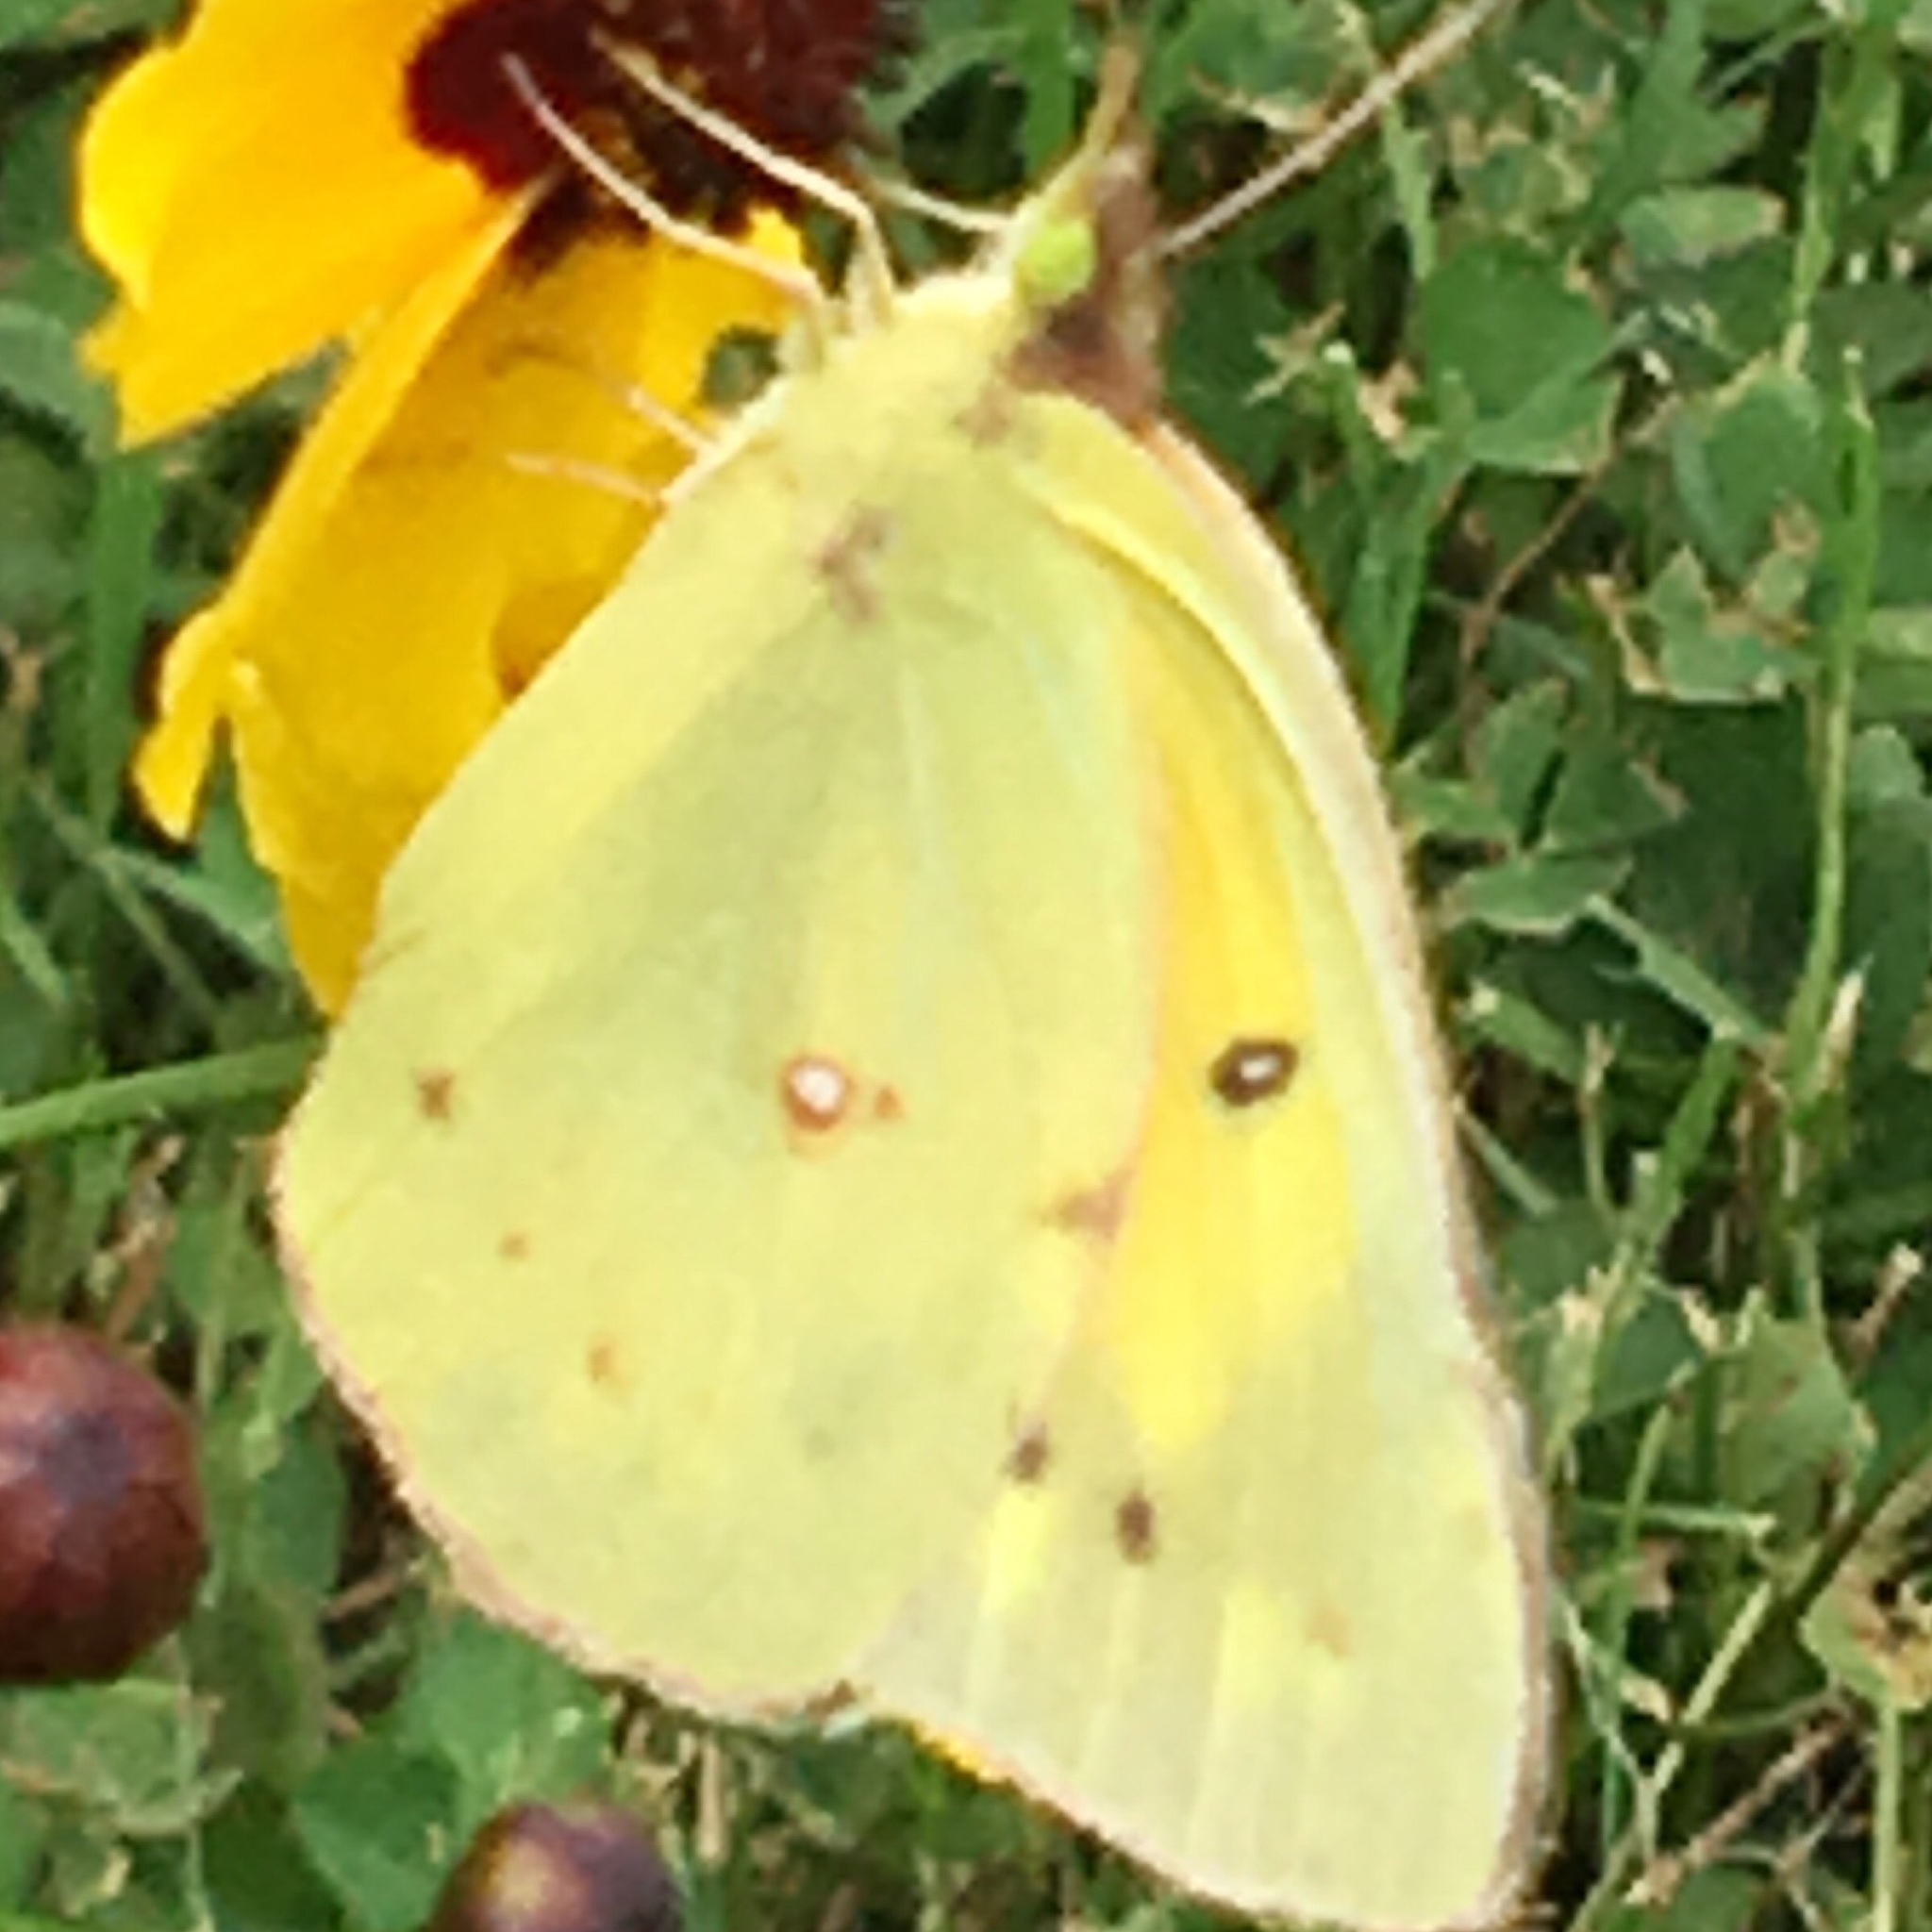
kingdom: Animalia
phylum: Arthropoda
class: Insecta
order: Lepidoptera
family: Pieridae
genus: Colias
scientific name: Colias eurytheme
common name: Alfalfa butterfly
